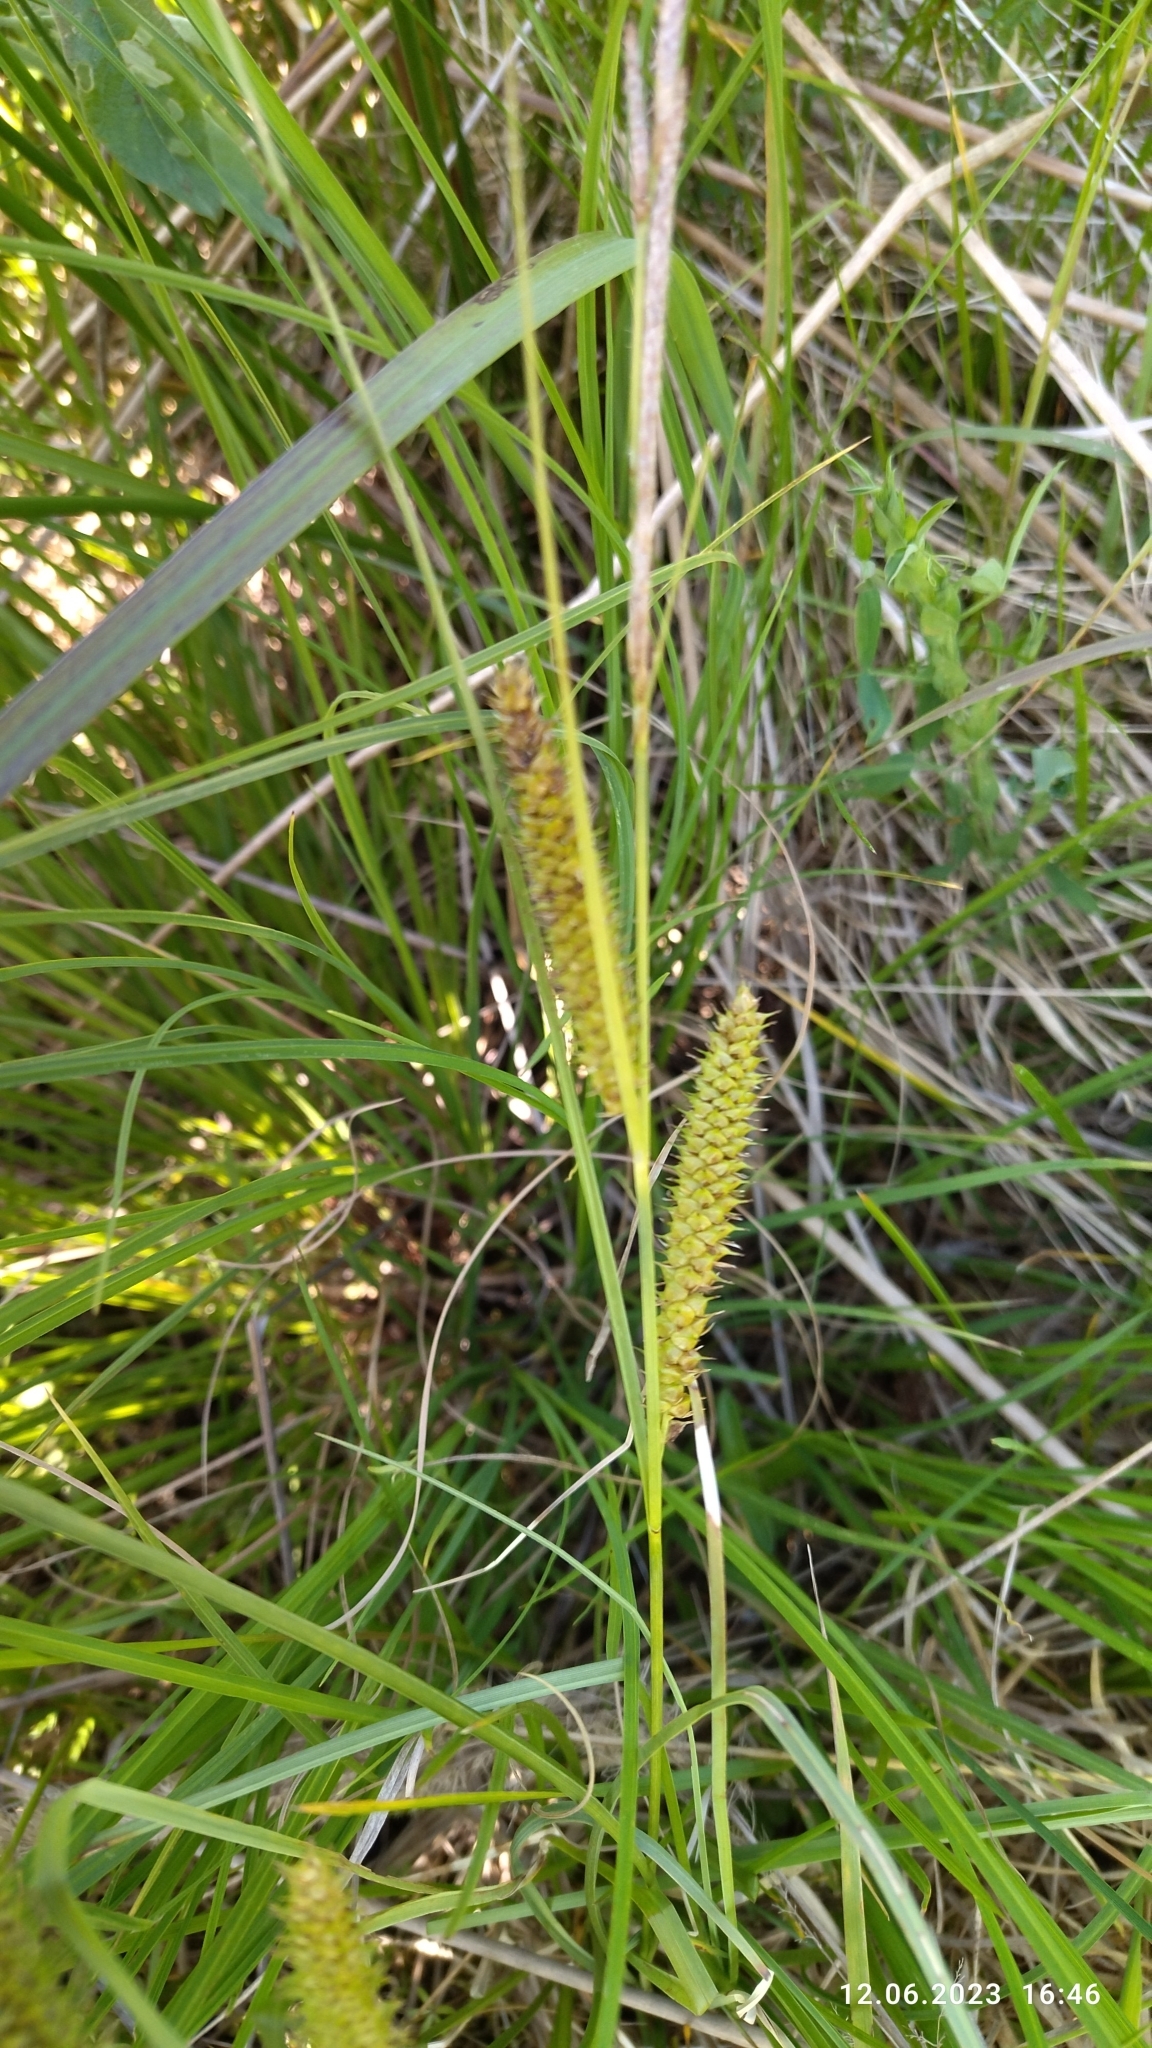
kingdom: Plantae
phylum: Tracheophyta
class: Liliopsida
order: Poales
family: Cyperaceae
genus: Carex
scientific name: Carex rostrata
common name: Bottle sedge
